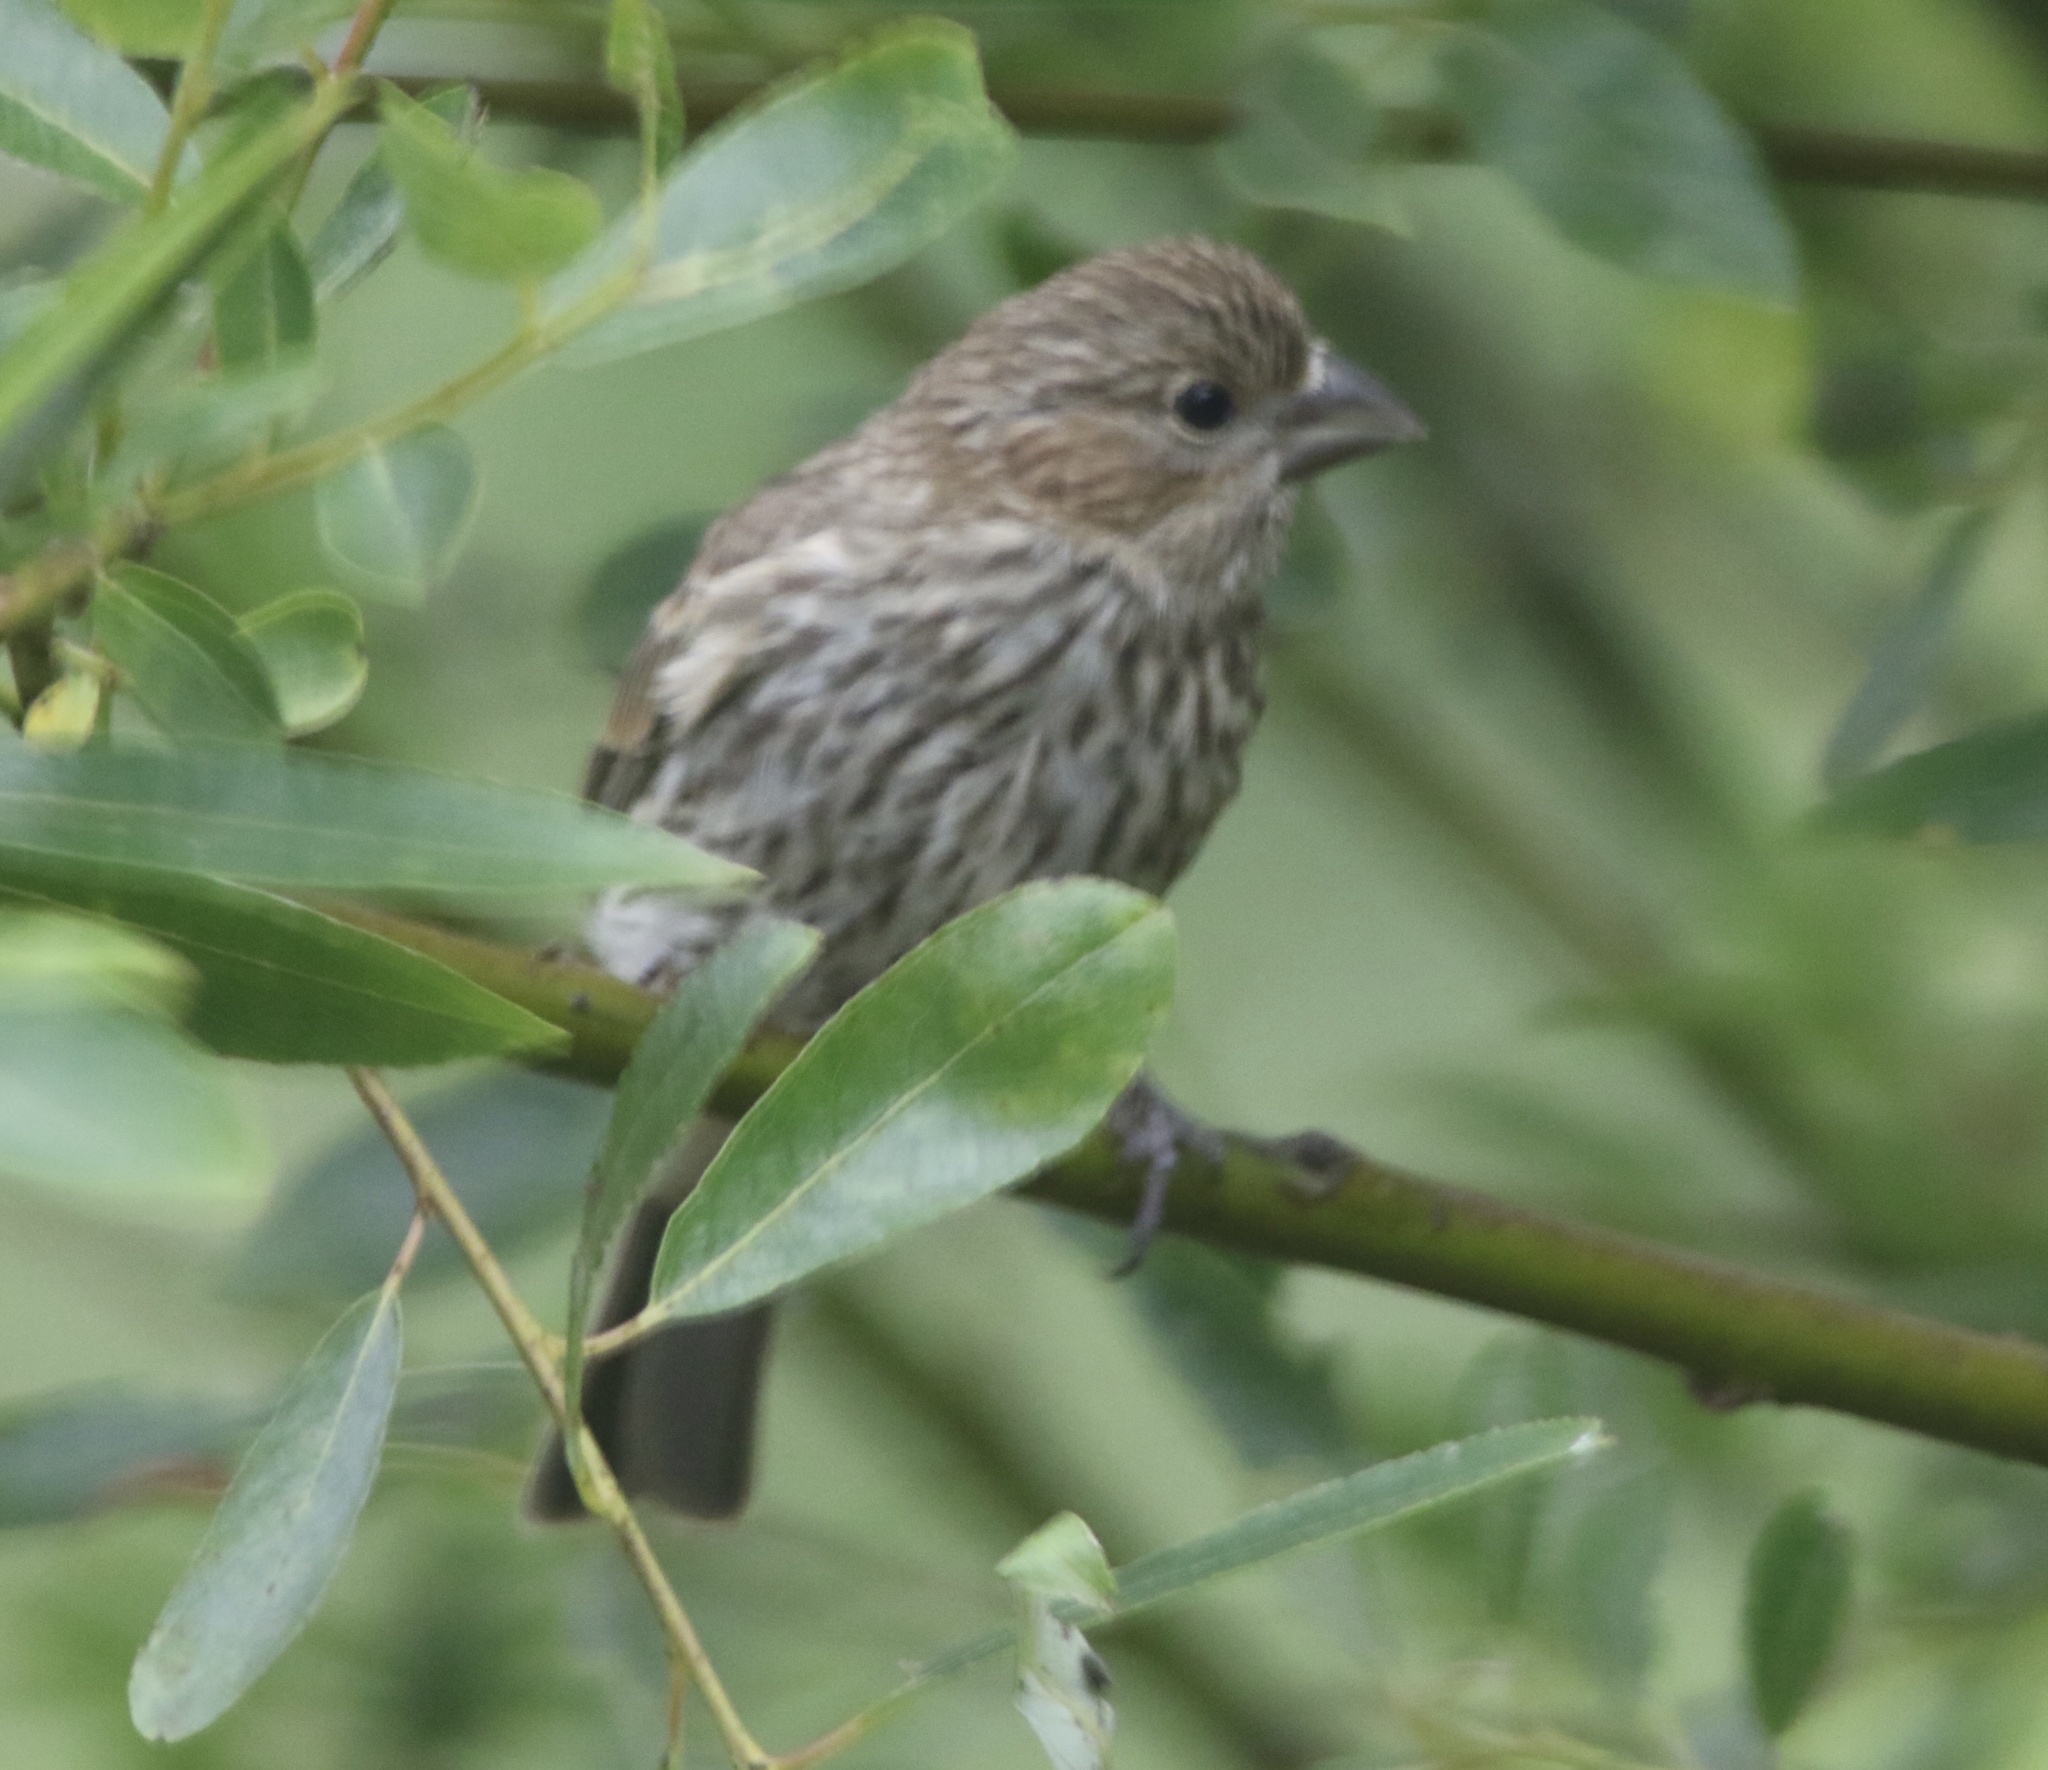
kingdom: Animalia
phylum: Chordata
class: Aves
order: Passeriformes
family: Fringillidae
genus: Haemorhous
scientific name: Haemorhous mexicanus
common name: House finch
